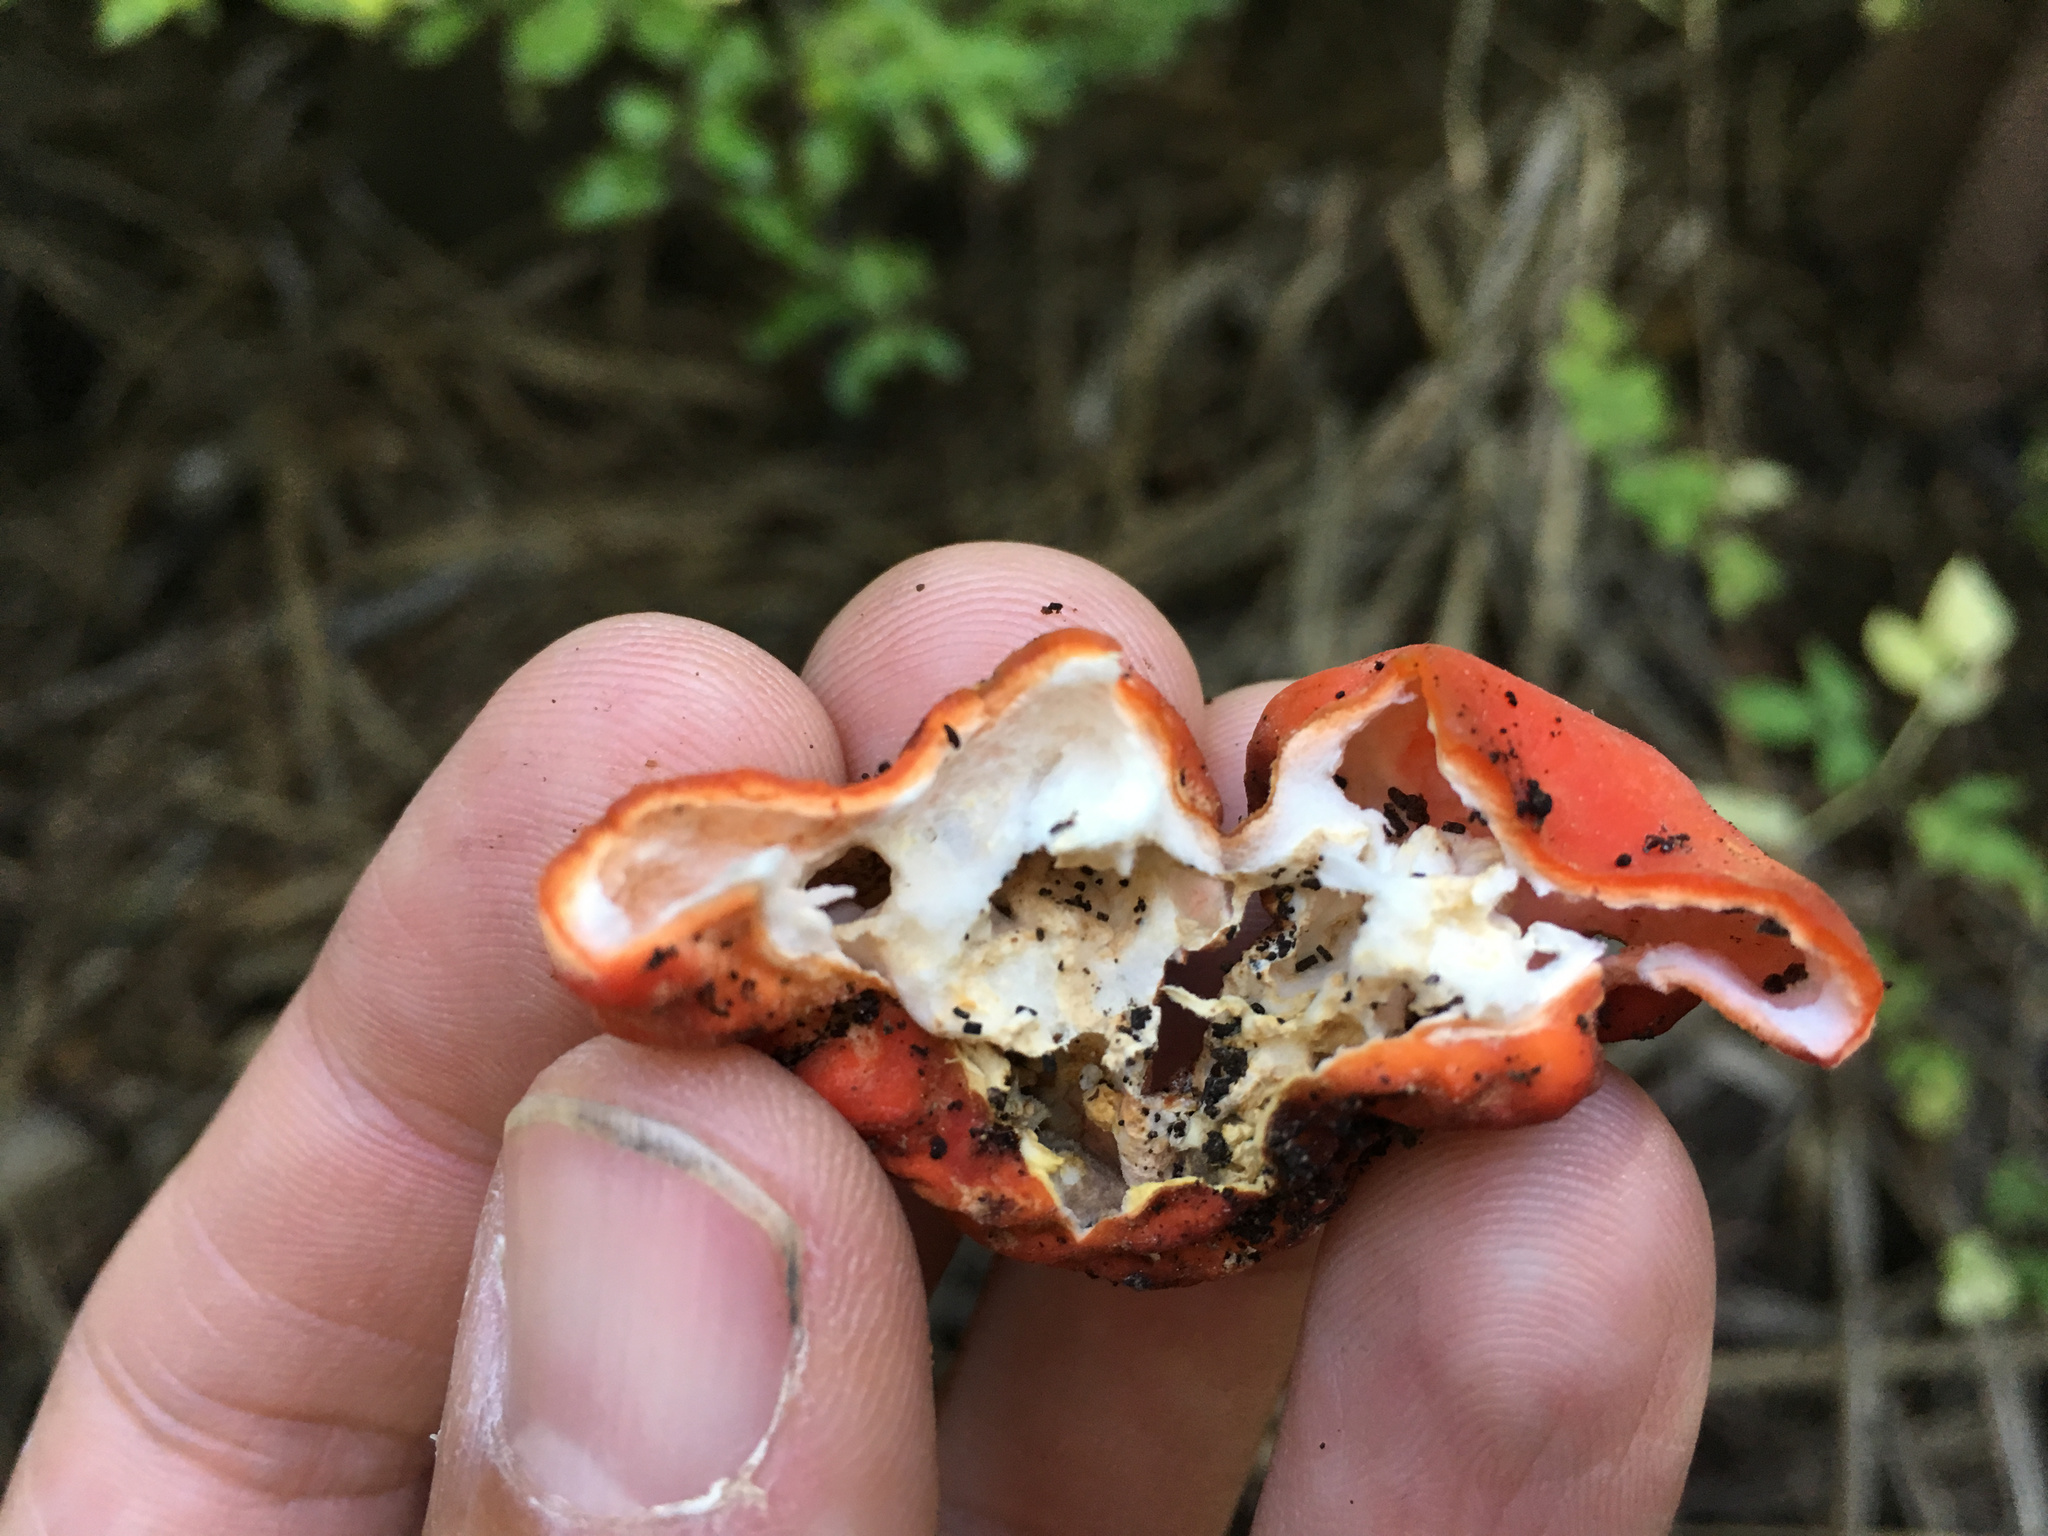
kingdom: Fungi
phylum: Ascomycota
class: Pezizomycetes
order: Pezizales
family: Pyronemataceae
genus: Paurocotylis
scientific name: Paurocotylis pila
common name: Scarlet berry truffle
